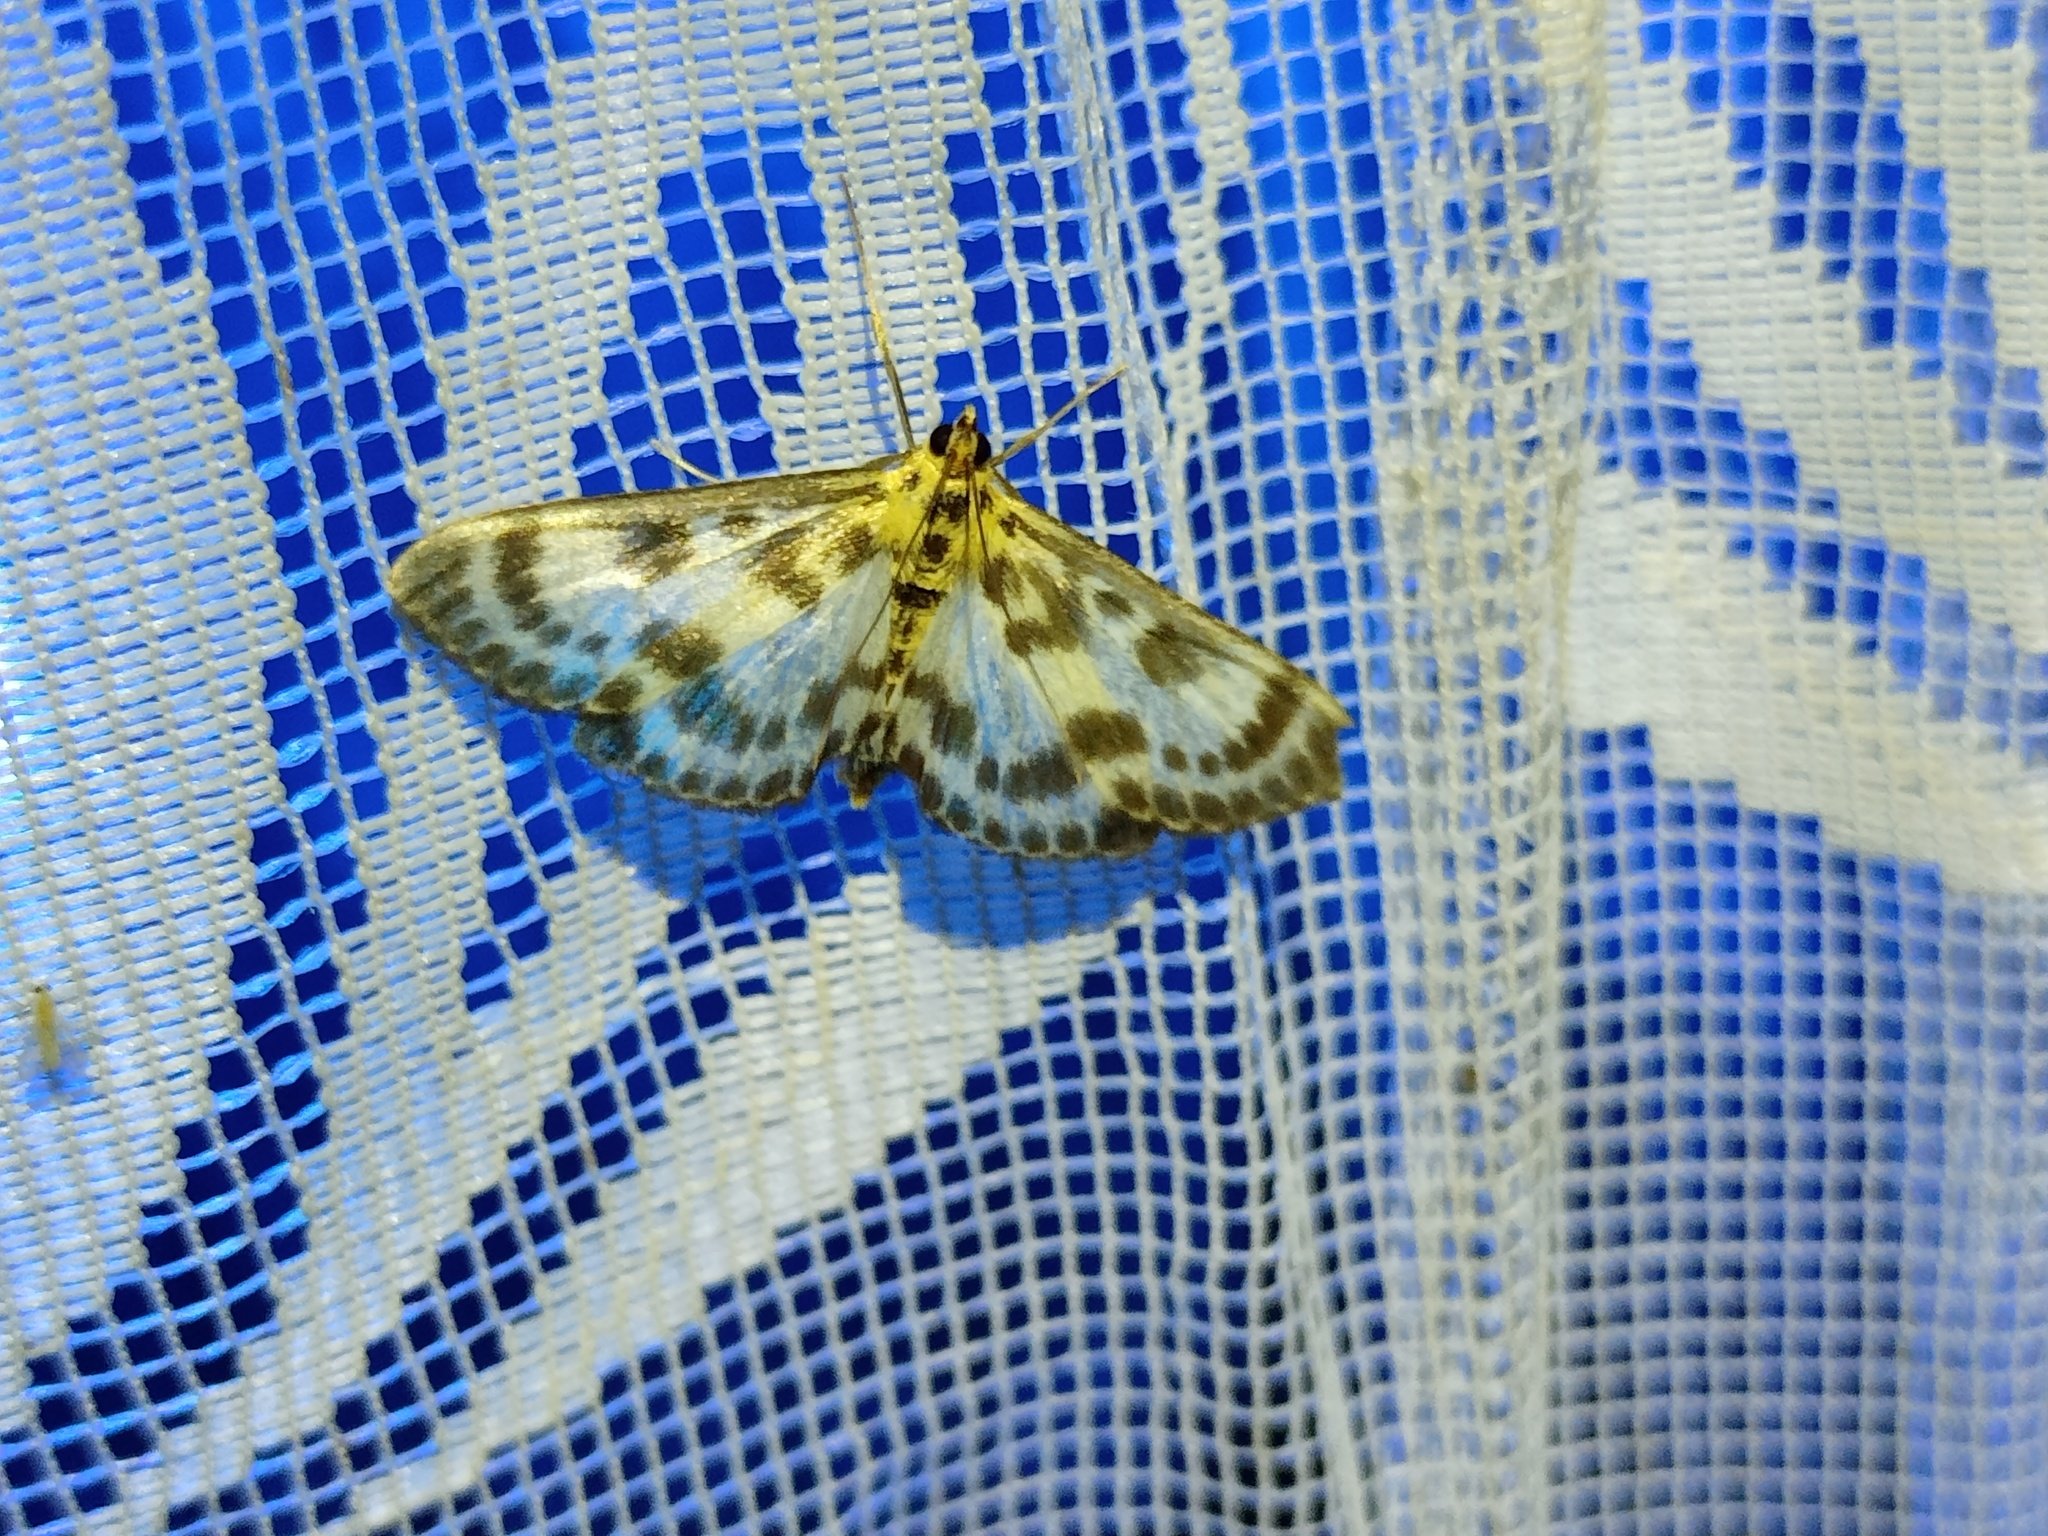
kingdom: Animalia
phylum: Arthropoda
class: Insecta
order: Lepidoptera
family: Crambidae
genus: Anania
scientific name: Anania hortulata
